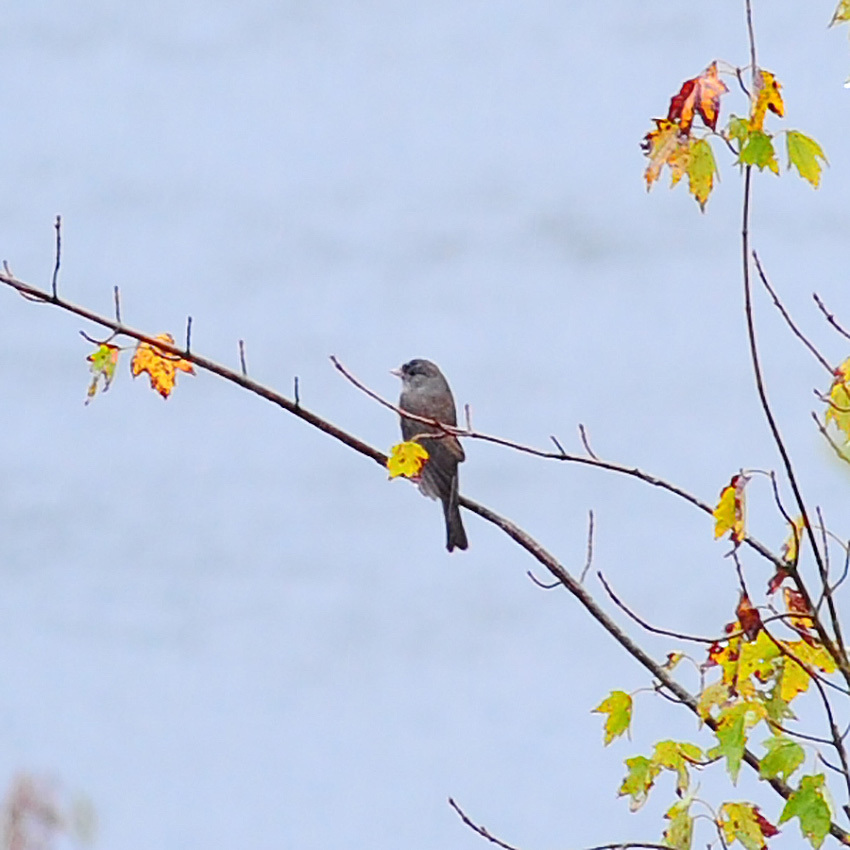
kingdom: Animalia
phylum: Chordata
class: Aves
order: Passeriformes
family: Passerellidae
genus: Junco
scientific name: Junco hyemalis
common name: Dark-eyed junco
